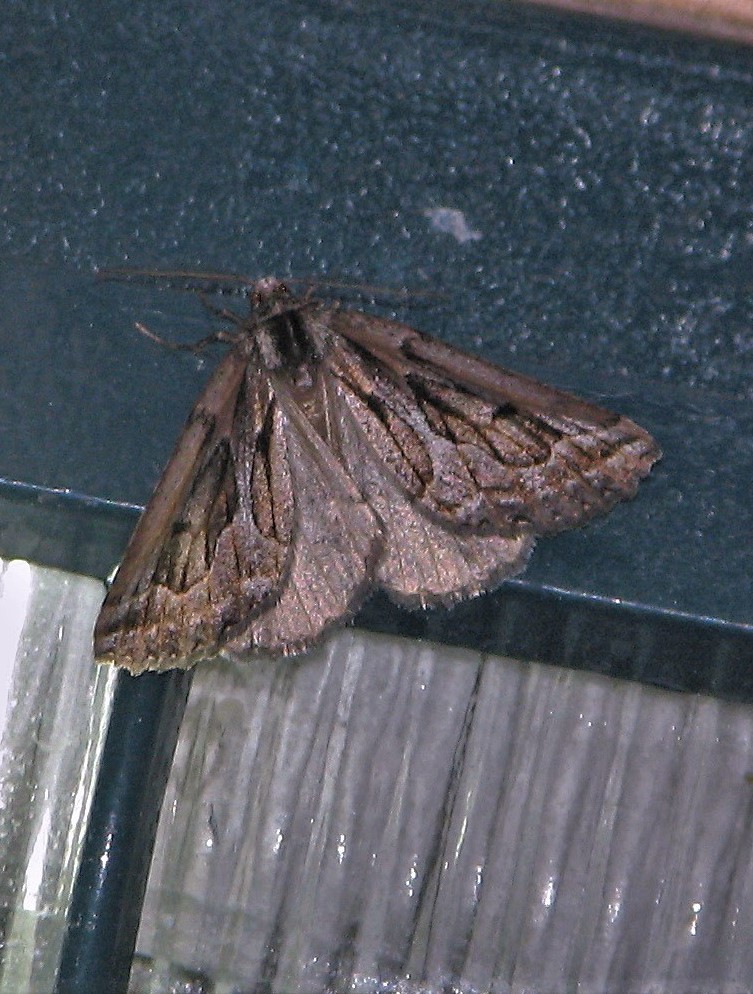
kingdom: Animalia
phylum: Arthropoda
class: Insecta
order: Lepidoptera
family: Geometridae
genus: Pseudaleucis
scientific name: Pseudaleucis
